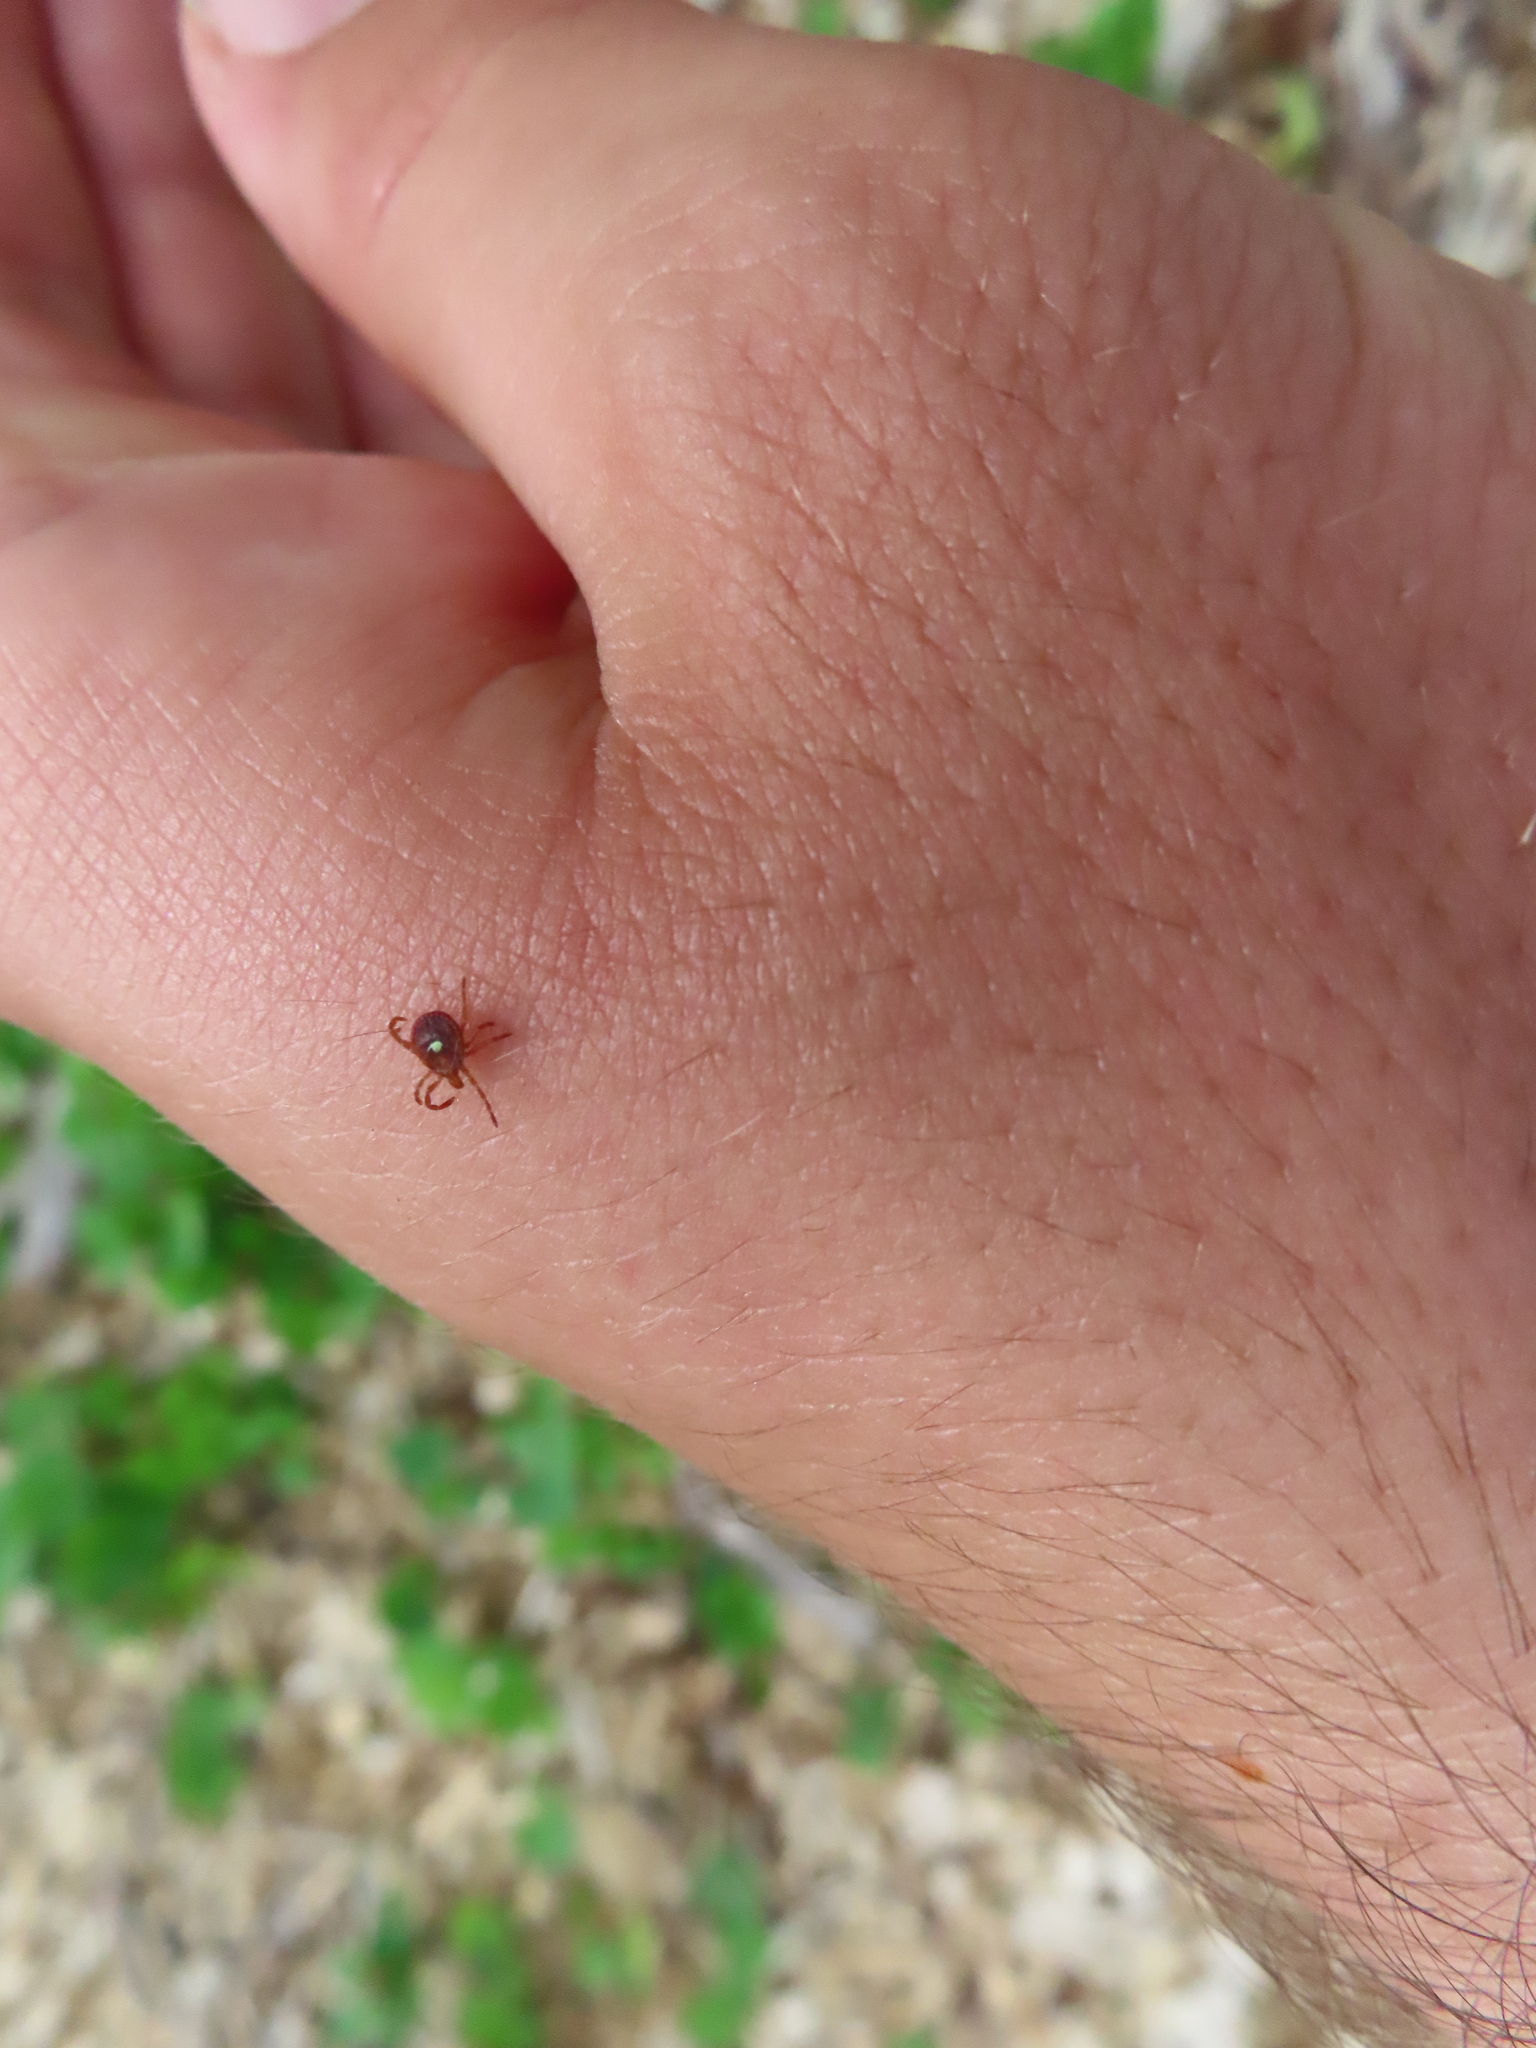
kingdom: Animalia
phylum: Arthropoda
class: Arachnida
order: Ixodida
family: Ixodidae
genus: Amblyomma
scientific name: Amblyomma americanum
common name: Lone star tick
